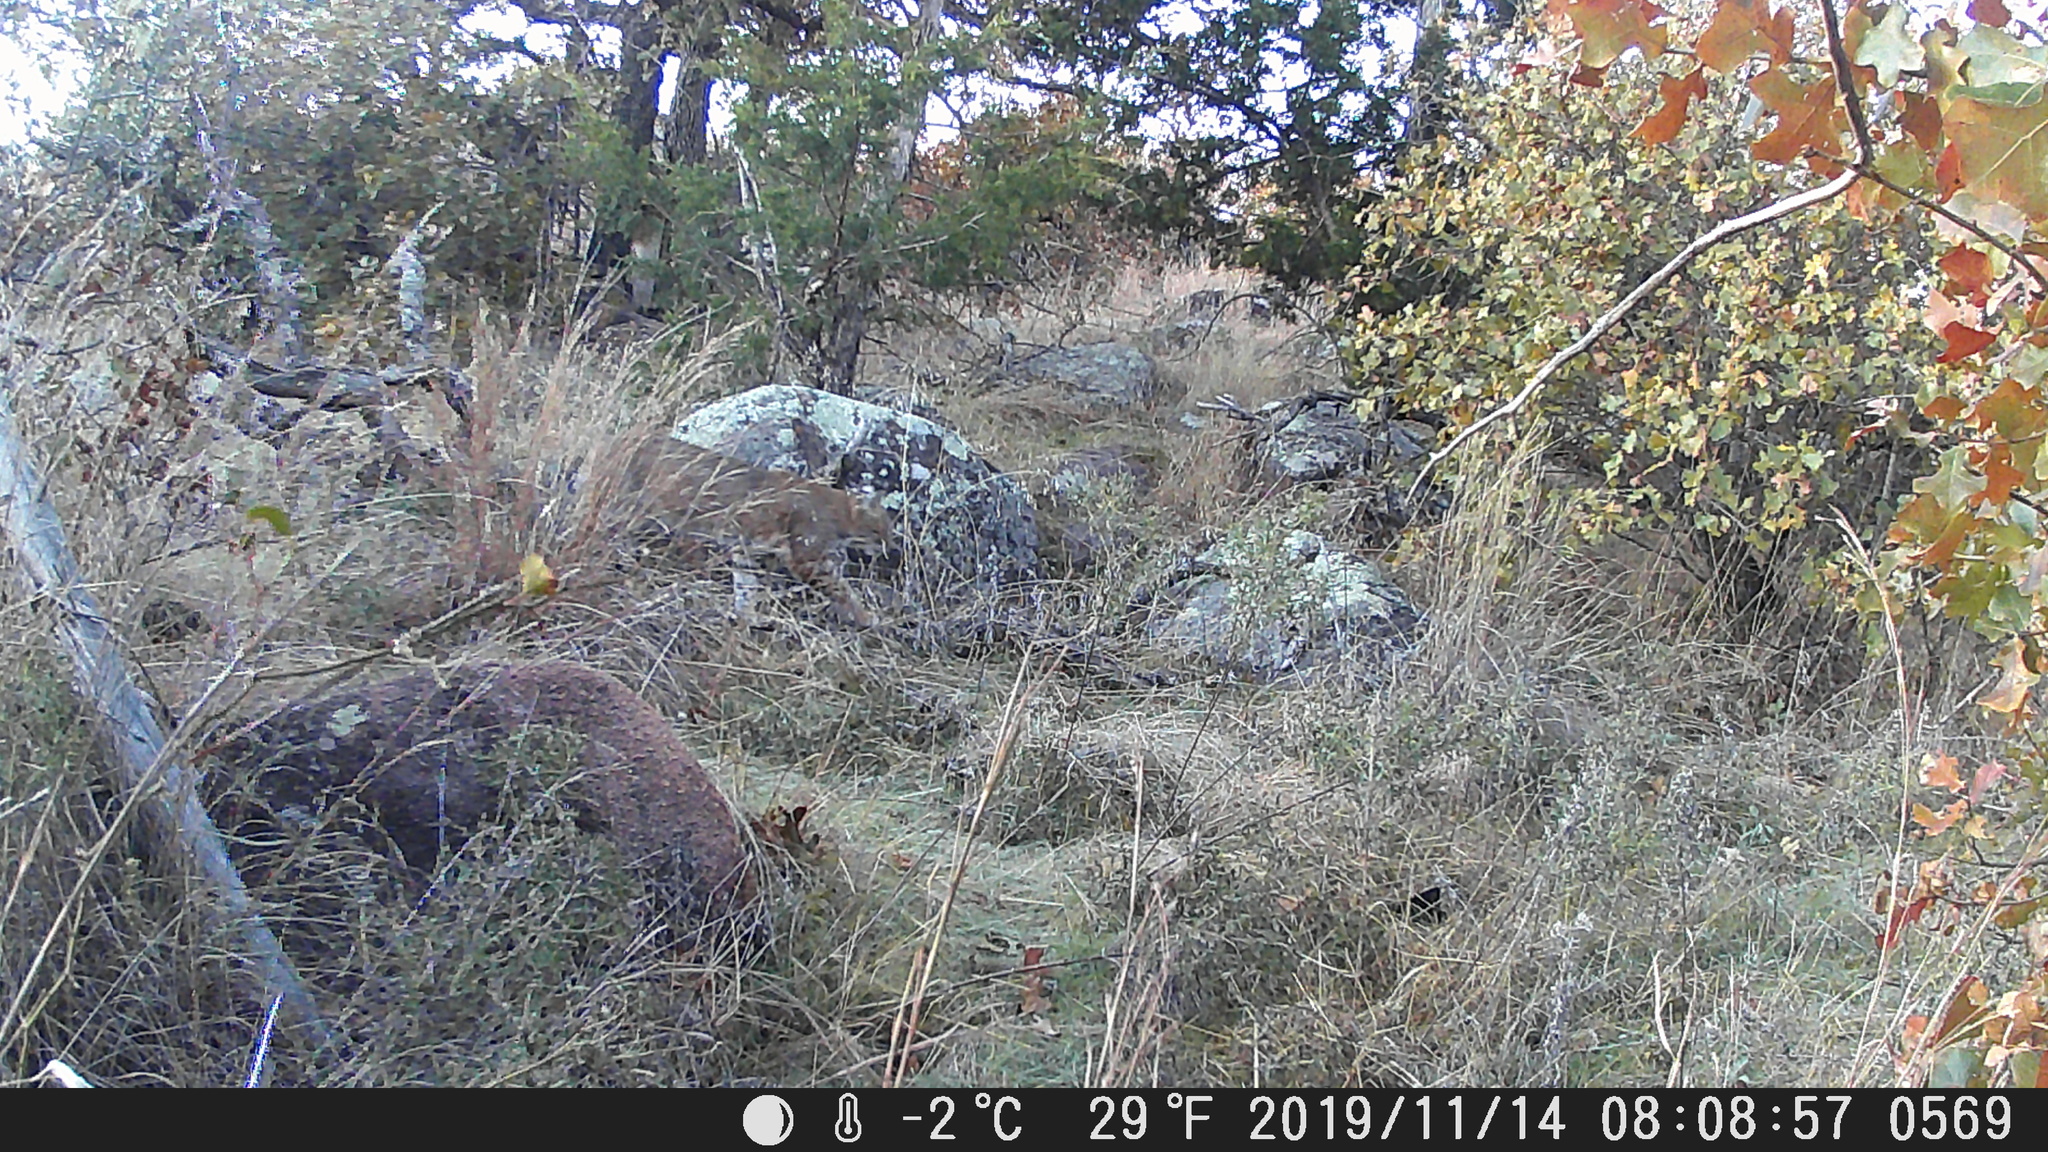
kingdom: Animalia
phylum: Chordata
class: Mammalia
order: Carnivora
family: Felidae
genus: Lynx
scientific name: Lynx rufus
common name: Bobcat
